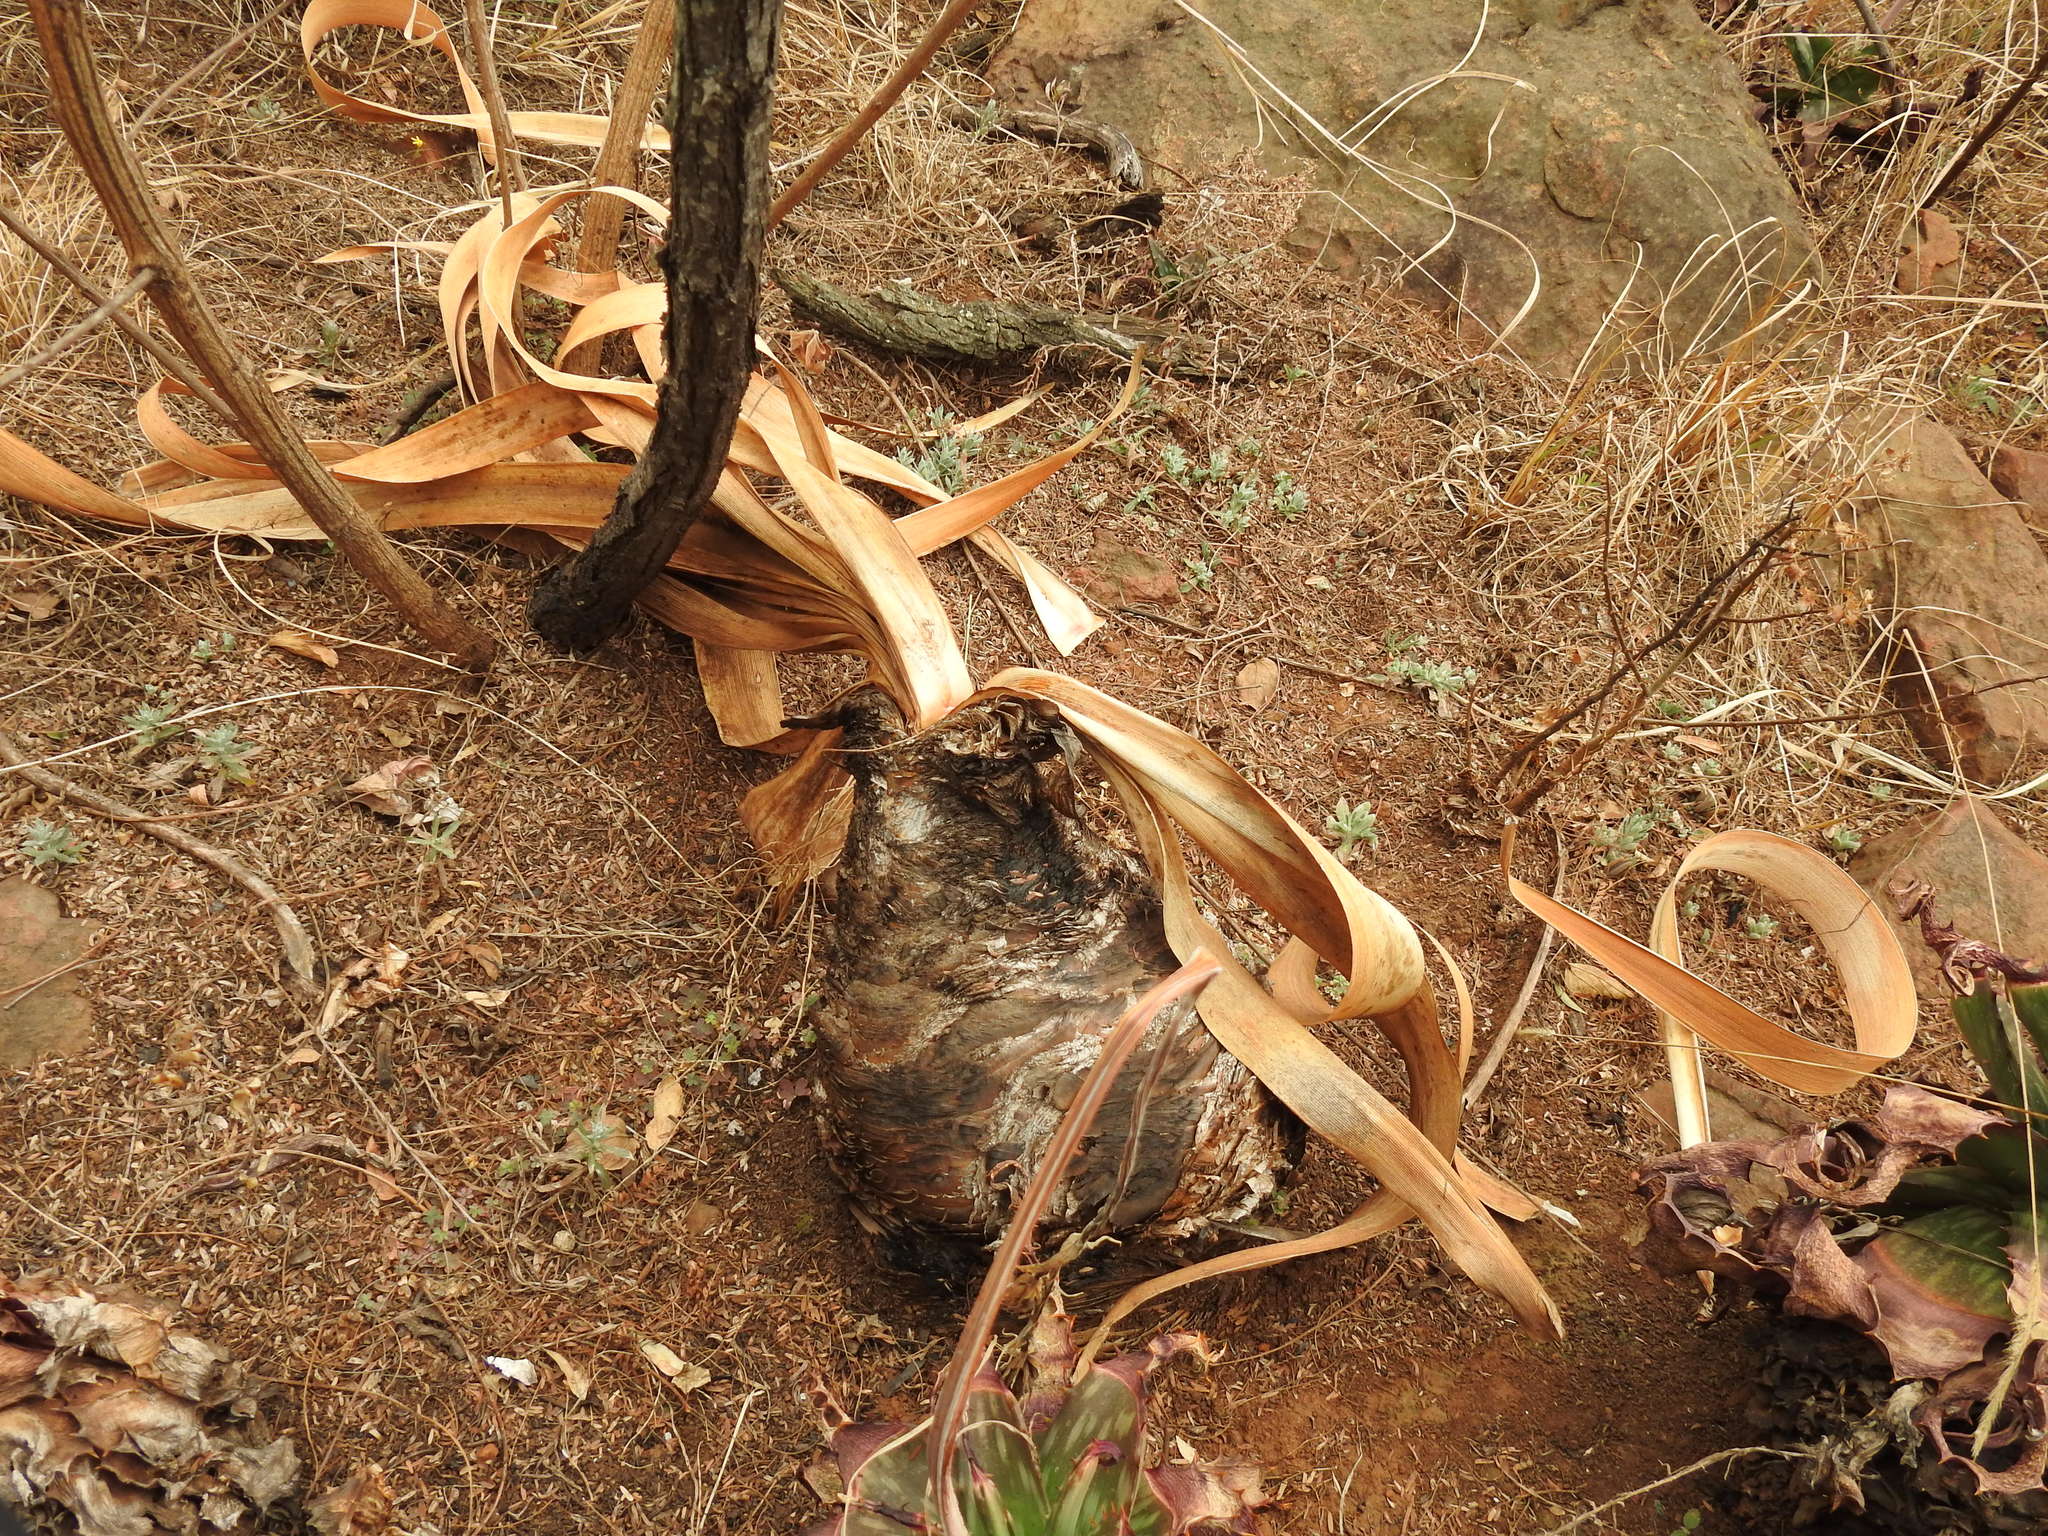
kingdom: Plantae
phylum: Tracheophyta
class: Liliopsida
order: Asparagales
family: Amaryllidaceae
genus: Boophone
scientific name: Boophone disticha
